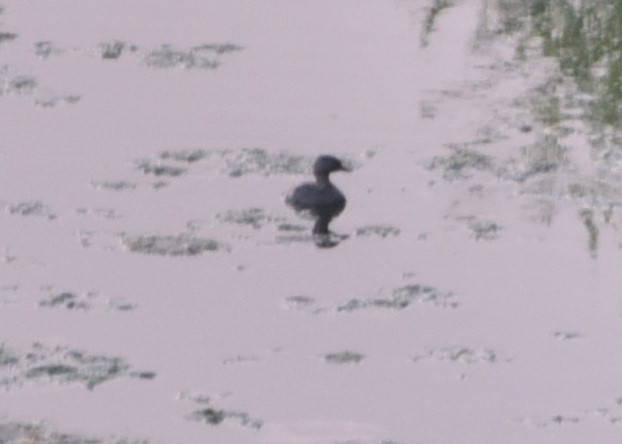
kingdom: Animalia
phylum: Chordata
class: Aves
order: Podicipediformes
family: Podicipedidae
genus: Tachybaptus
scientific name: Tachybaptus dominicus
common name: Least grebe
